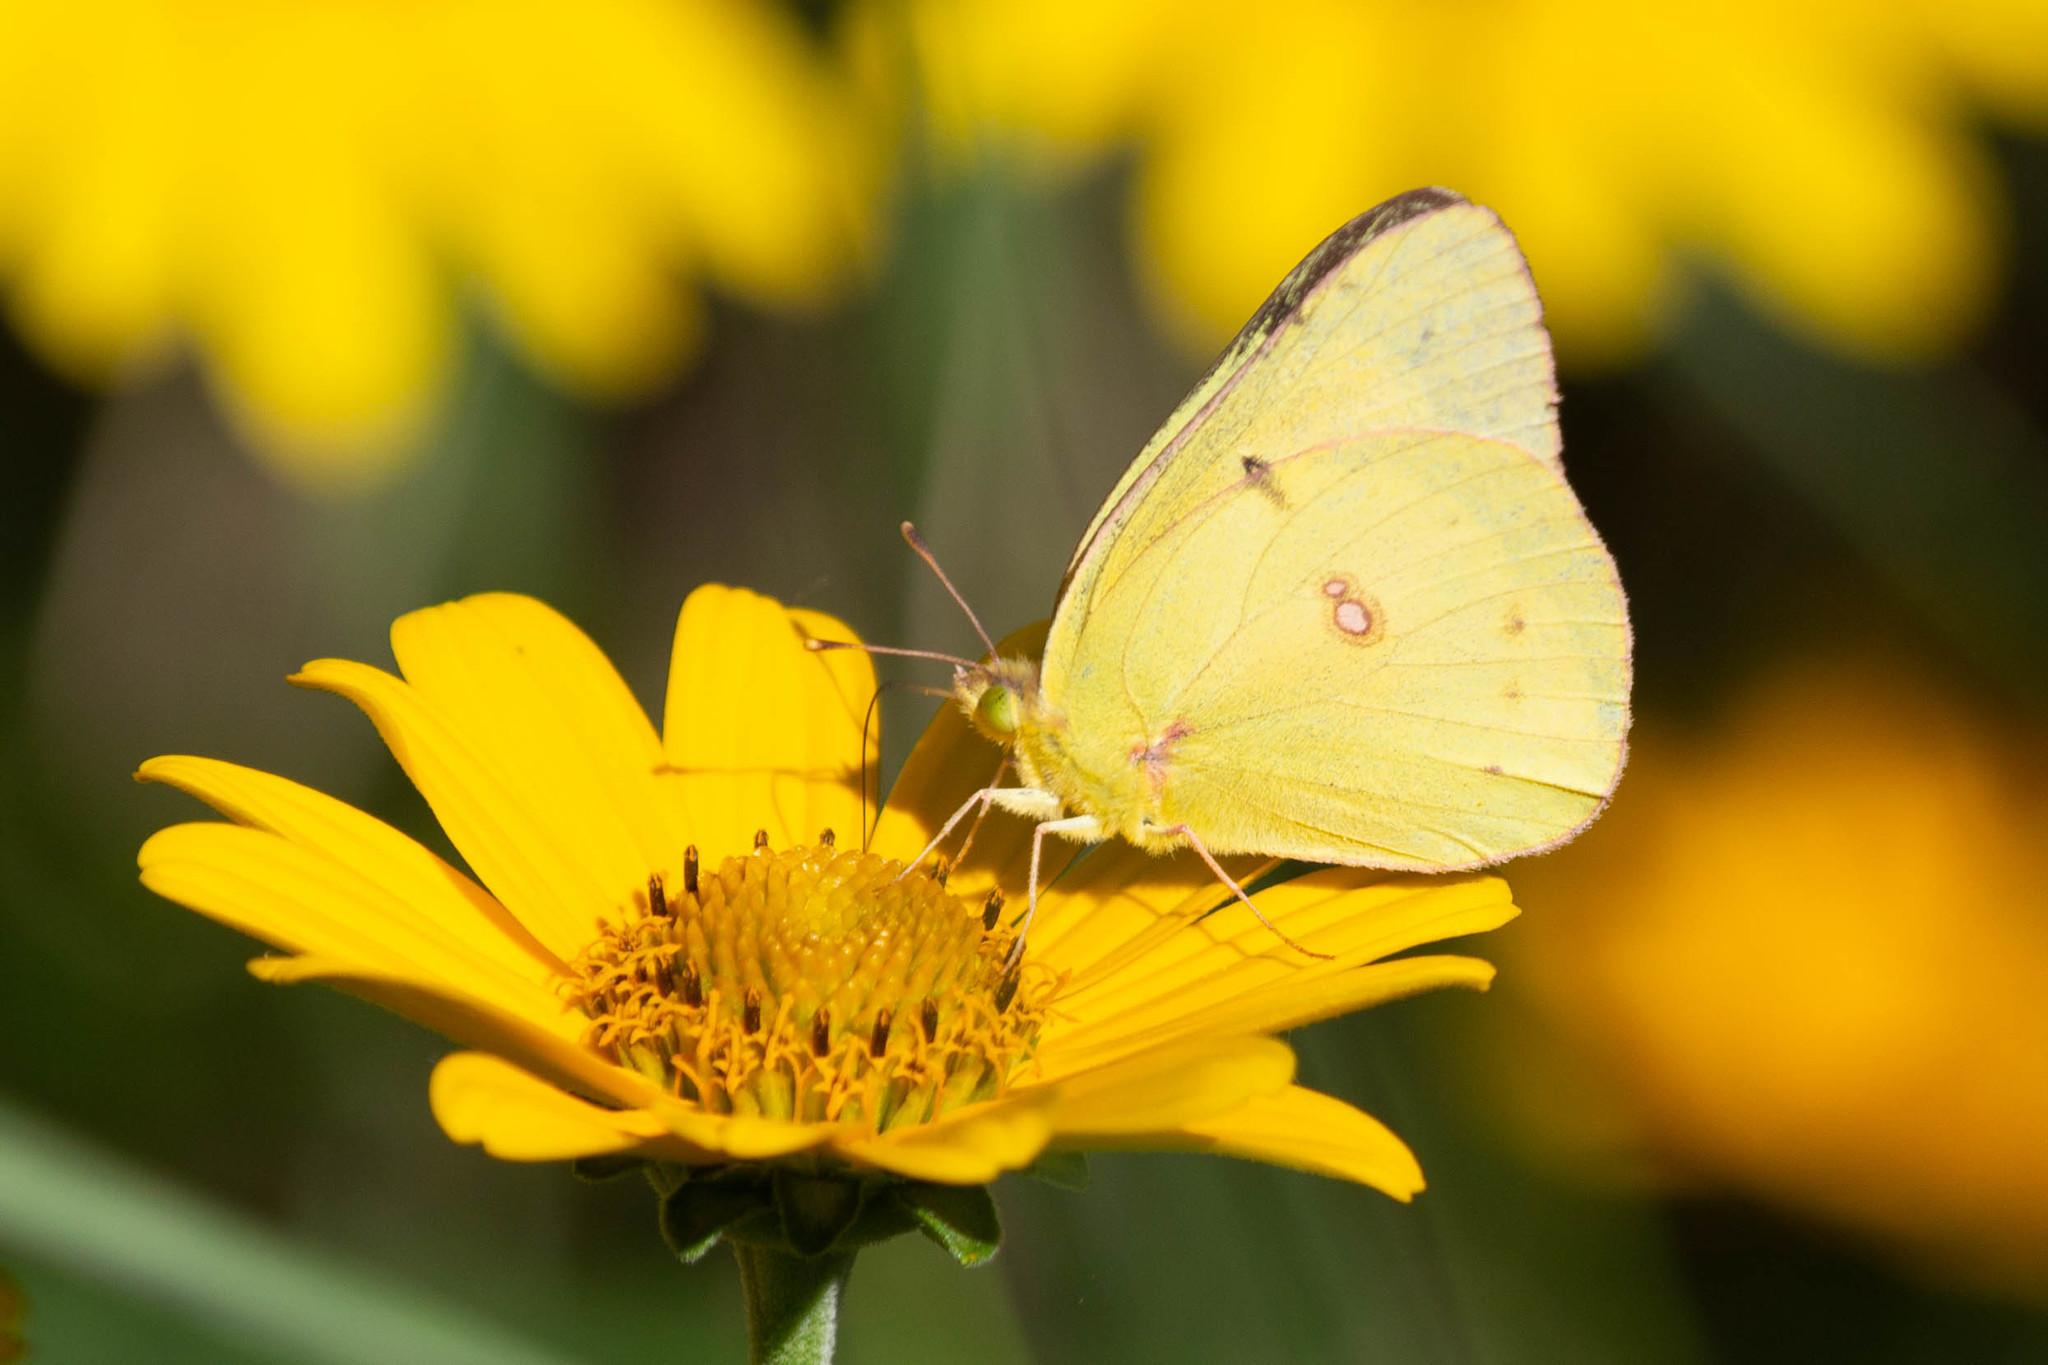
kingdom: Animalia
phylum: Arthropoda
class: Insecta
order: Lepidoptera
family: Pieridae
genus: Colias
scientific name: Colias eurytheme
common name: Alfalfa butterfly
